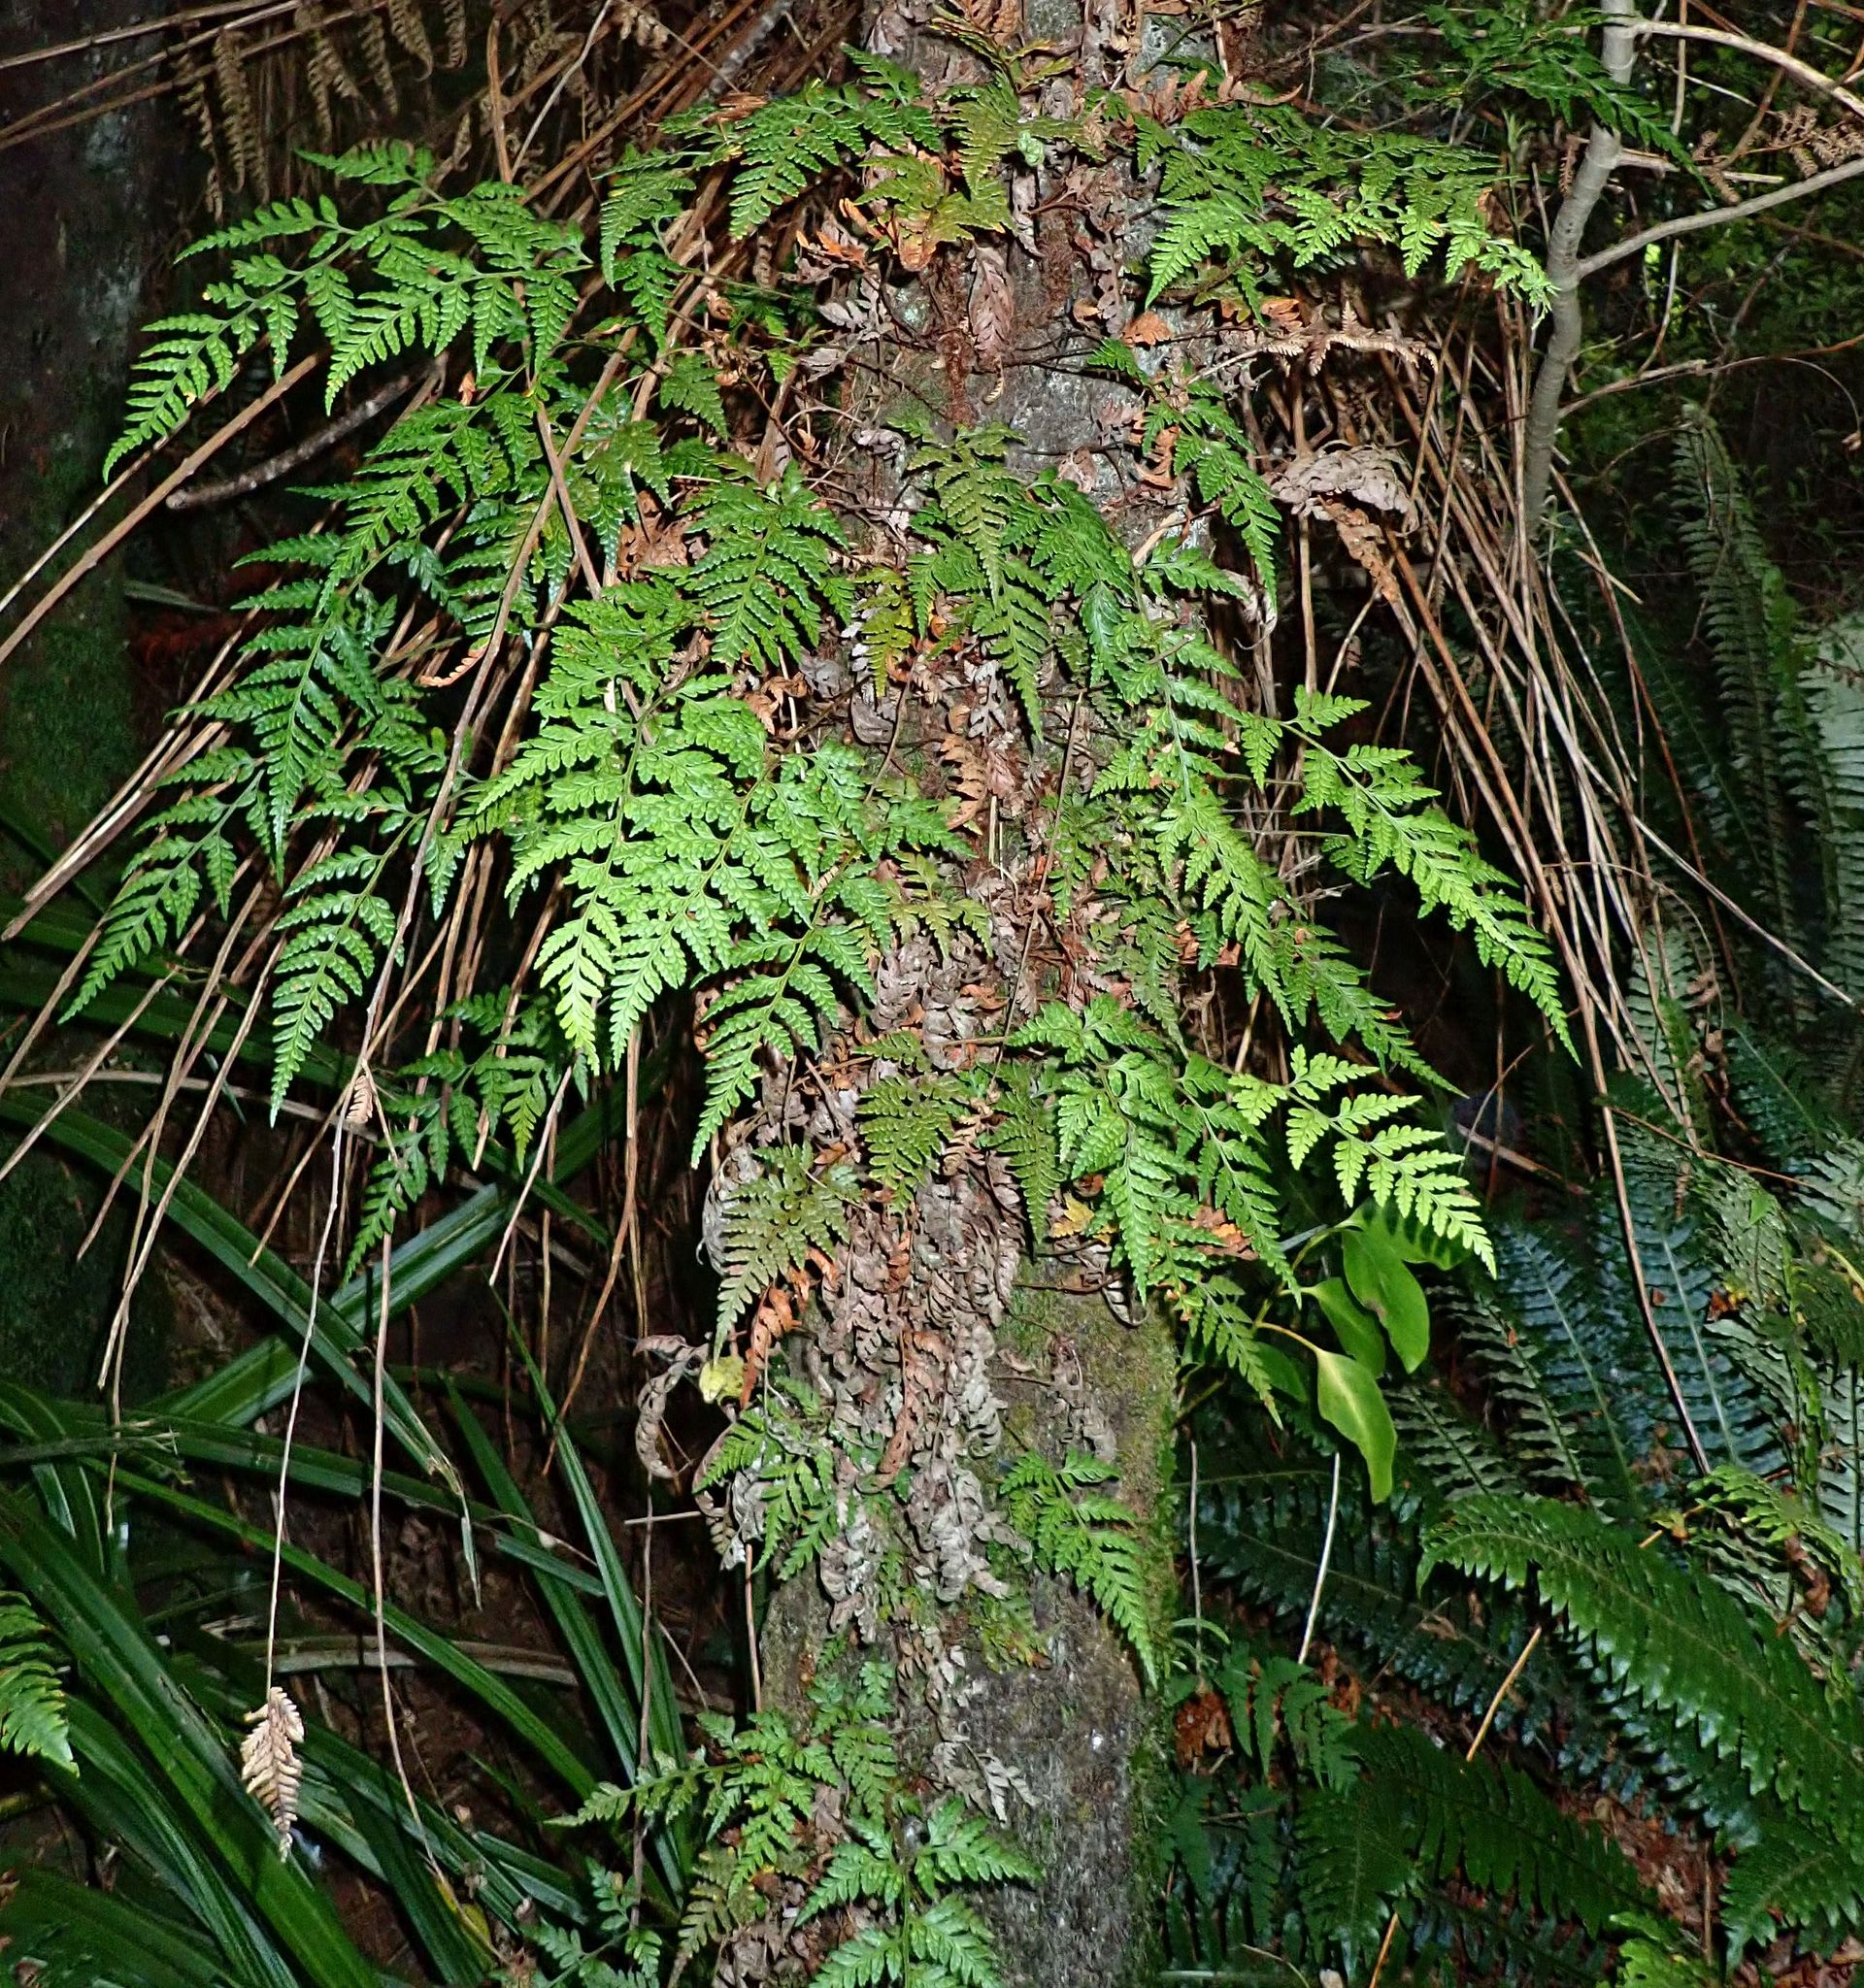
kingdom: Plantae
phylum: Tracheophyta
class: Polypodiopsida
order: Polypodiales
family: Dryopteridaceae
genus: Rumohra
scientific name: Rumohra adiantiformis
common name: Leather fern
